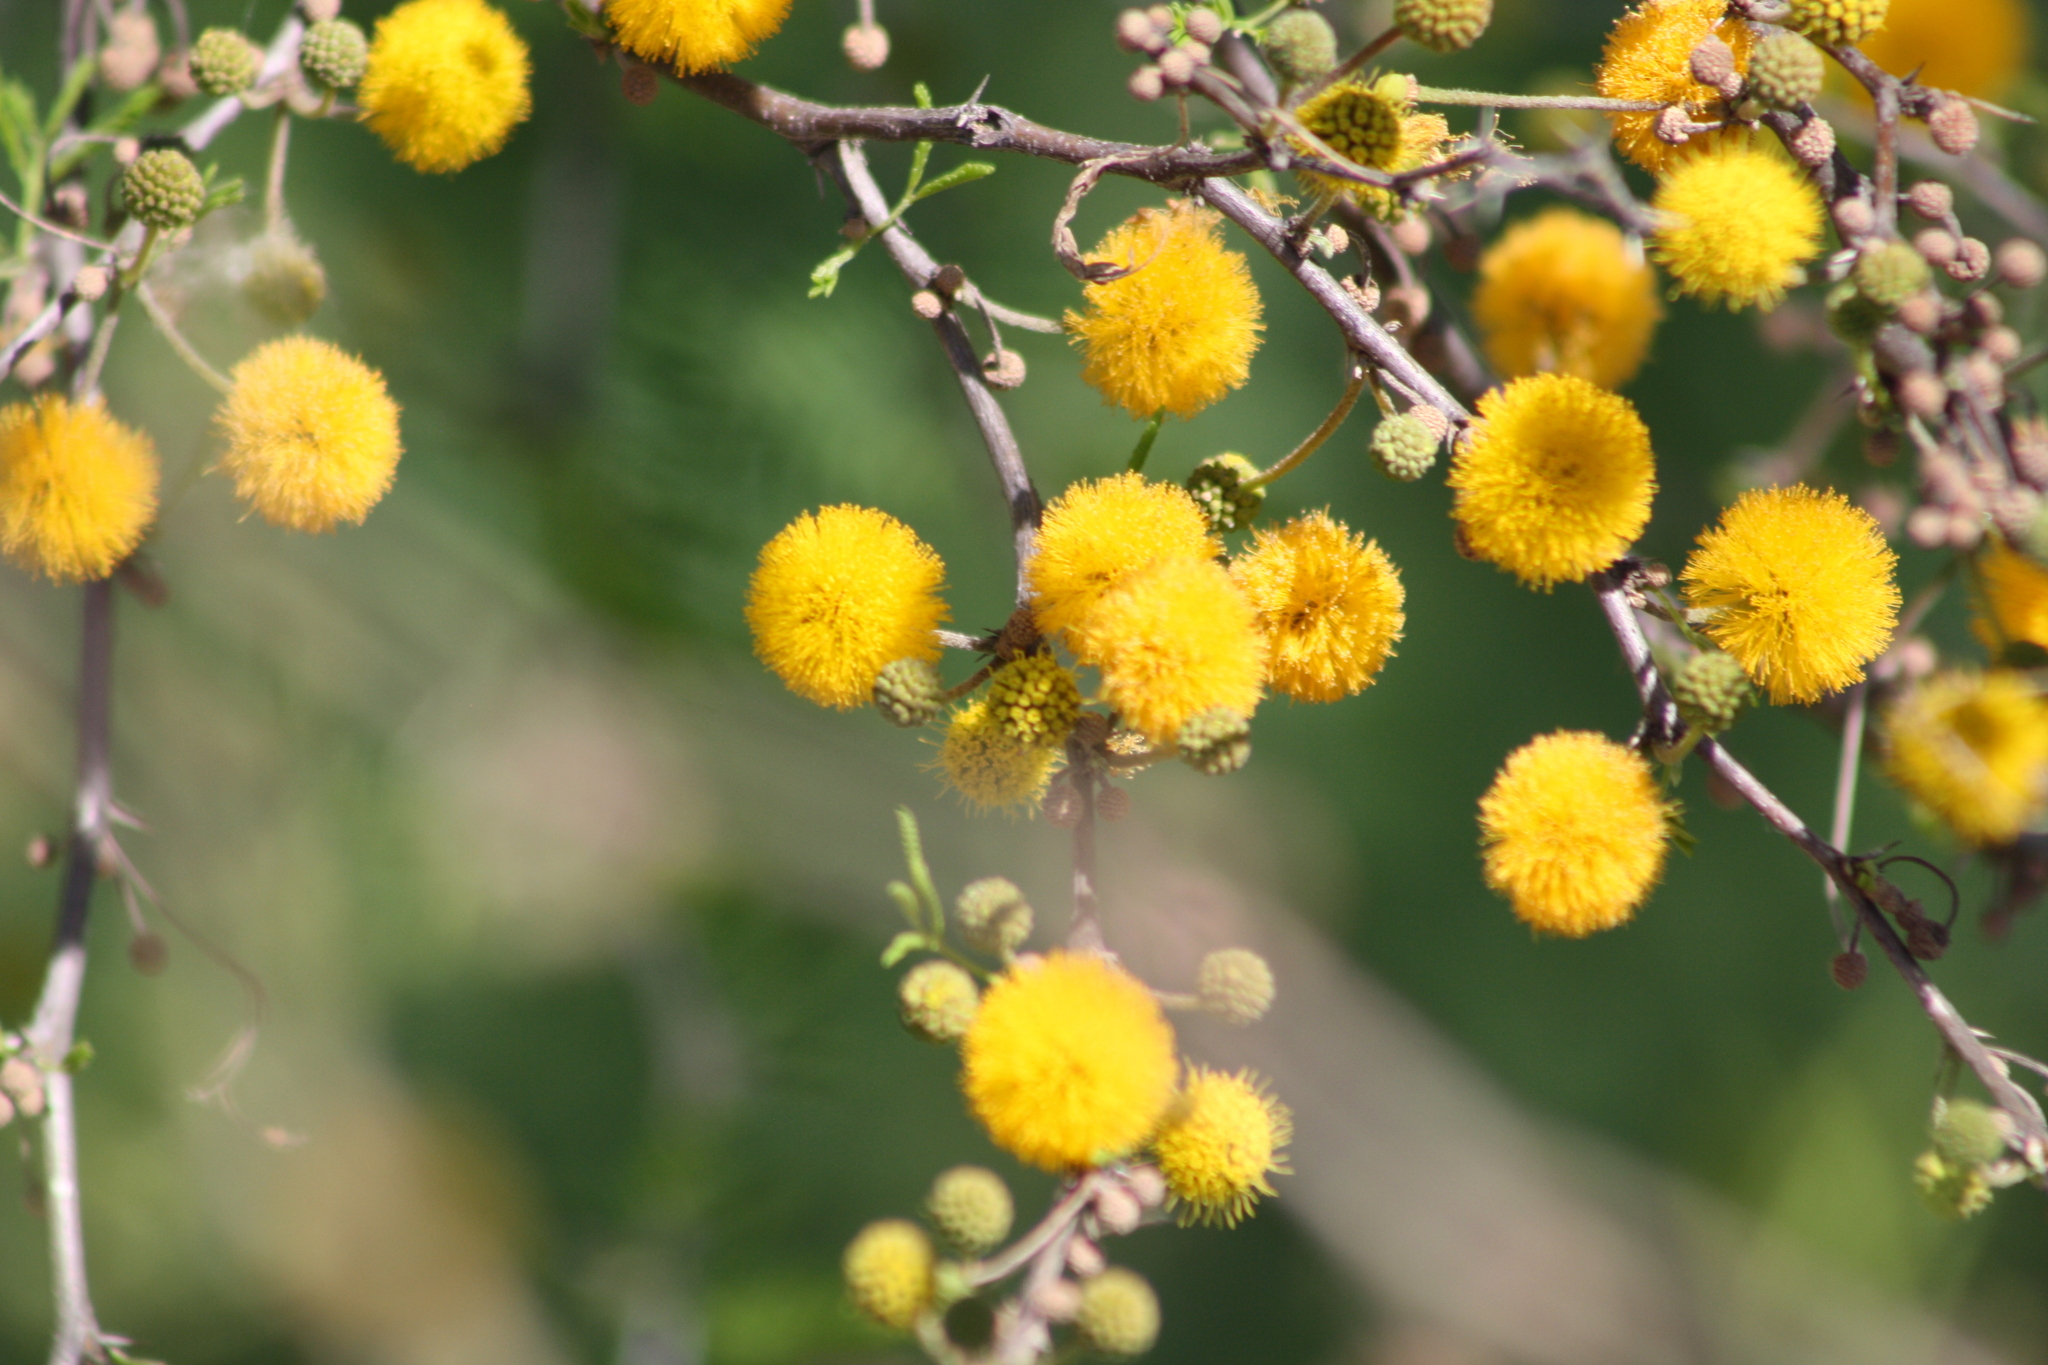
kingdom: Plantae
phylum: Tracheophyta
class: Magnoliopsida
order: Fabales
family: Fabaceae
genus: Vachellia
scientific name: Vachellia farnesiana
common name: Sweet acacia
